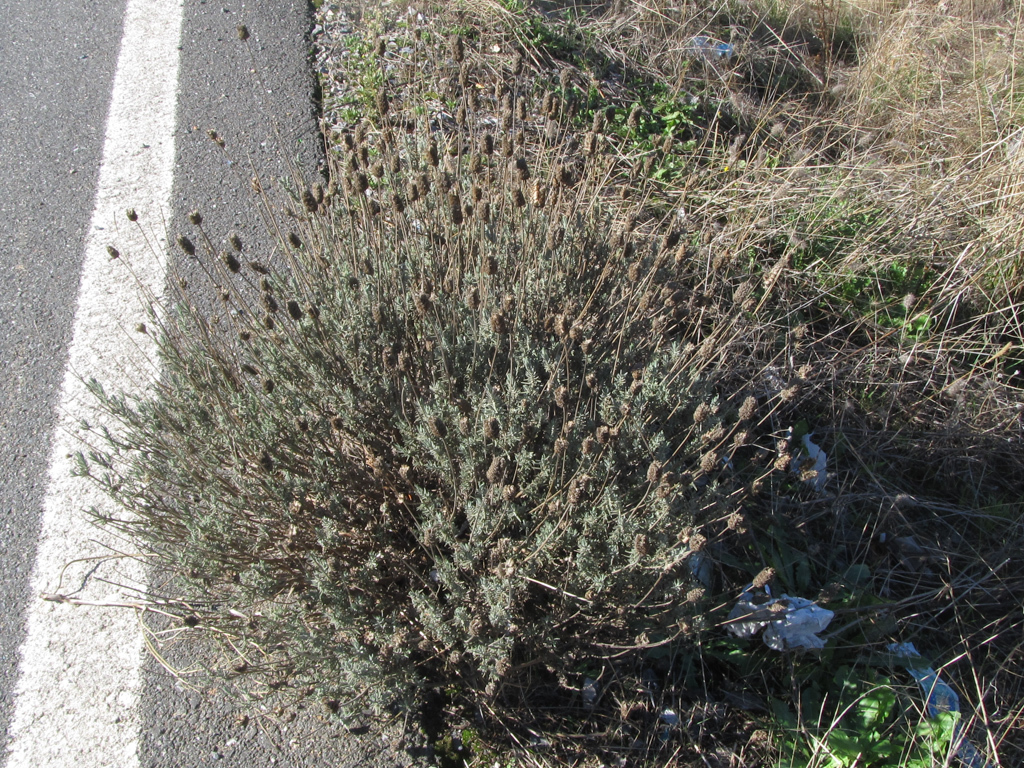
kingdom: Plantae
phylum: Tracheophyta
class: Magnoliopsida
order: Lamiales
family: Lamiaceae
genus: Lavandula
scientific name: Lavandula pedunculata
